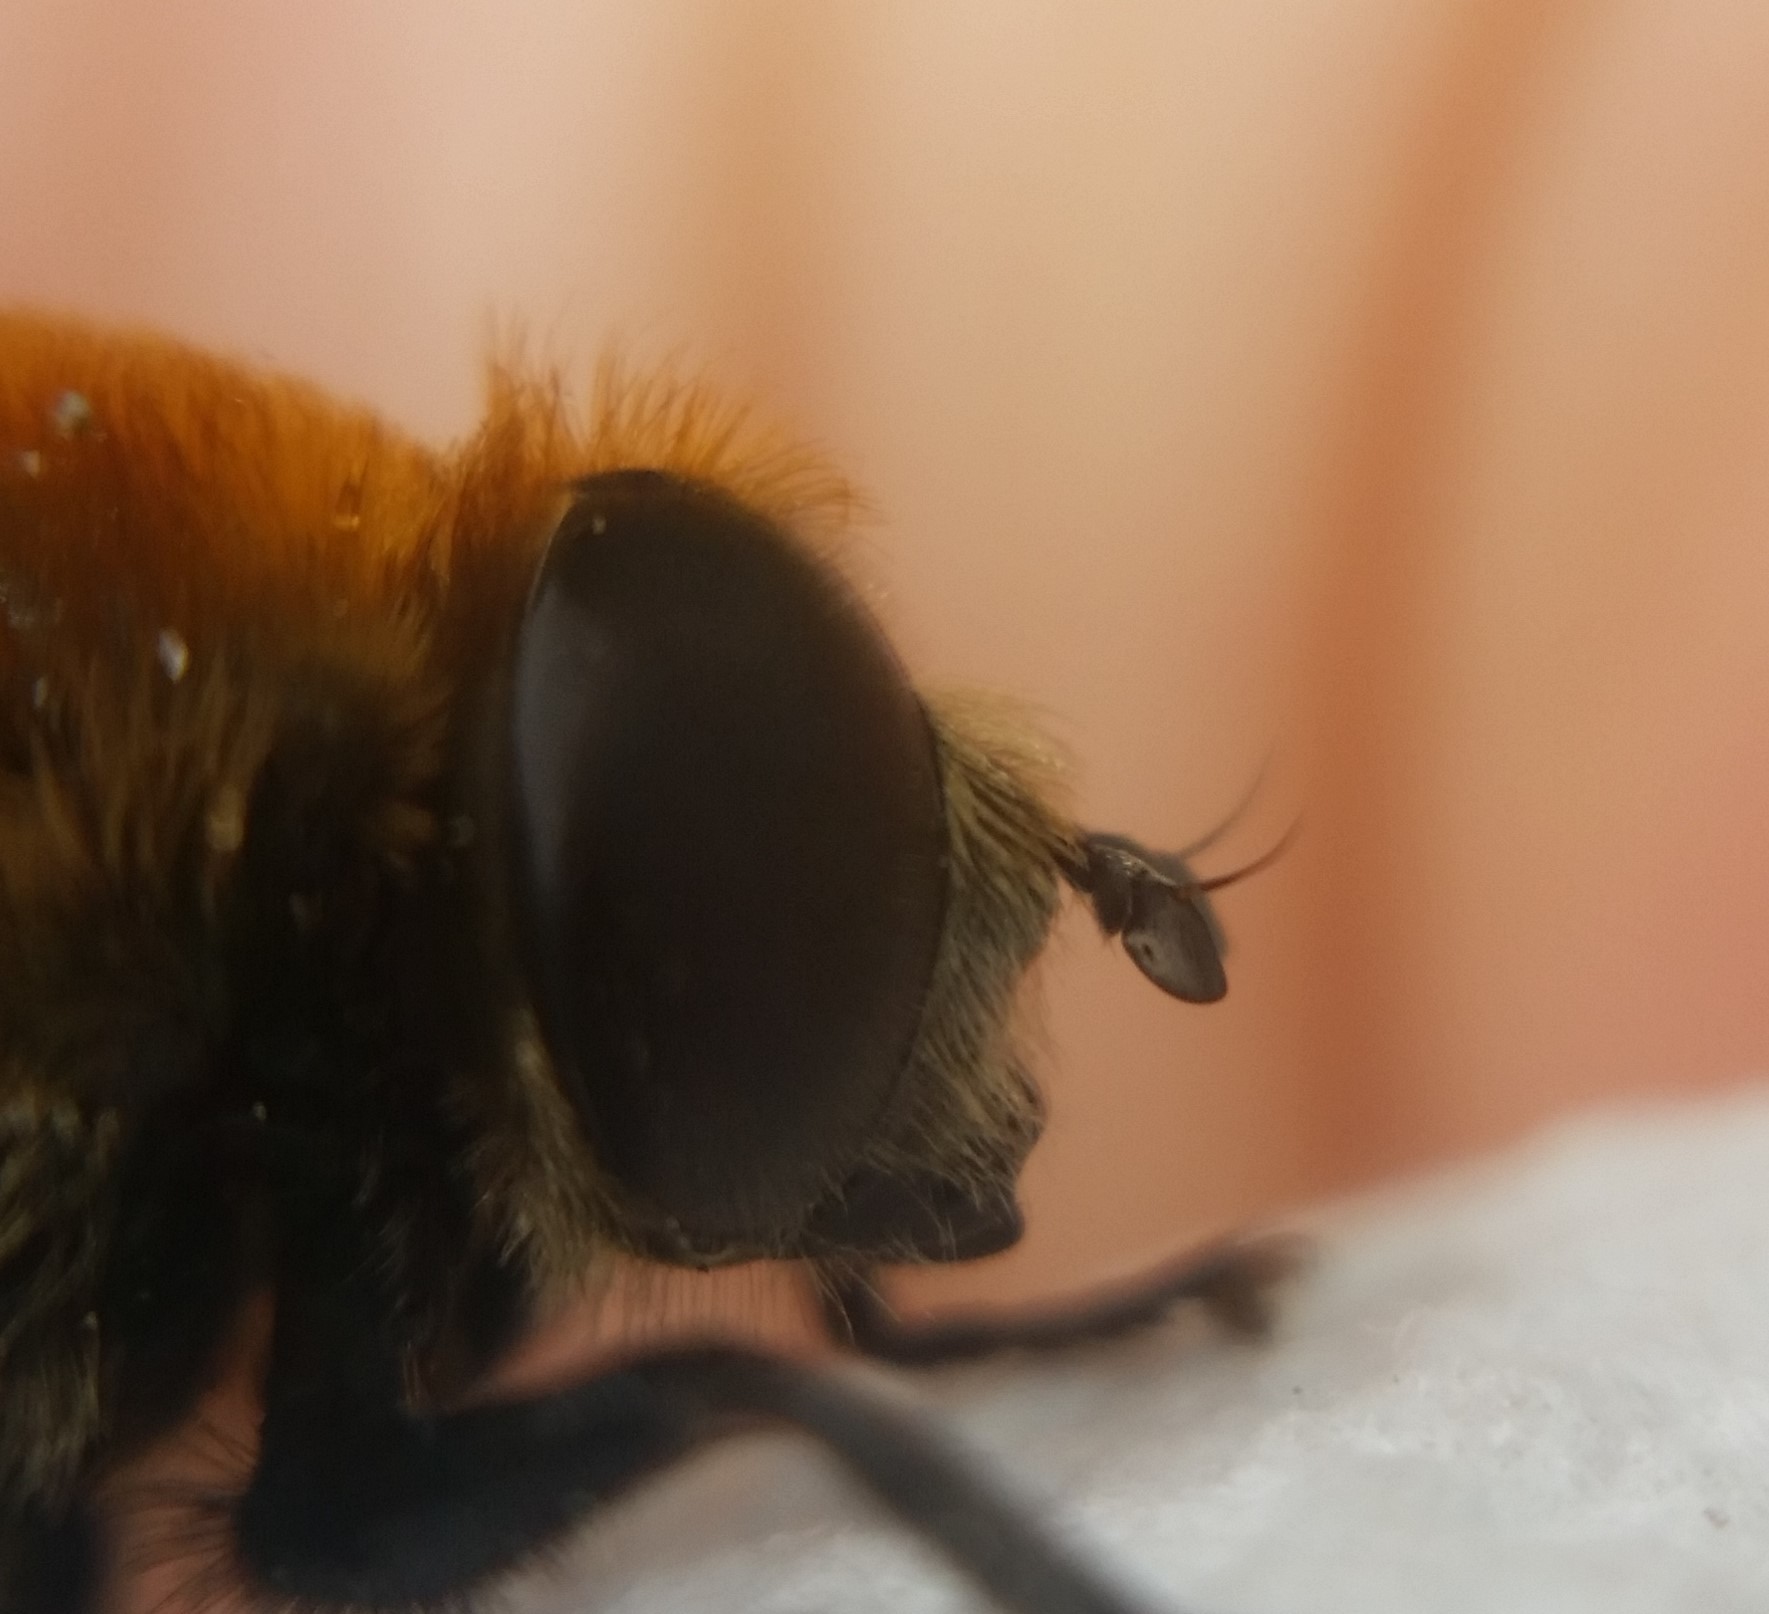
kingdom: Animalia
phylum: Arthropoda
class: Insecta
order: Diptera
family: Syrphidae
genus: Merodon
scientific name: Merodon equestris
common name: Greater bulb-fly
